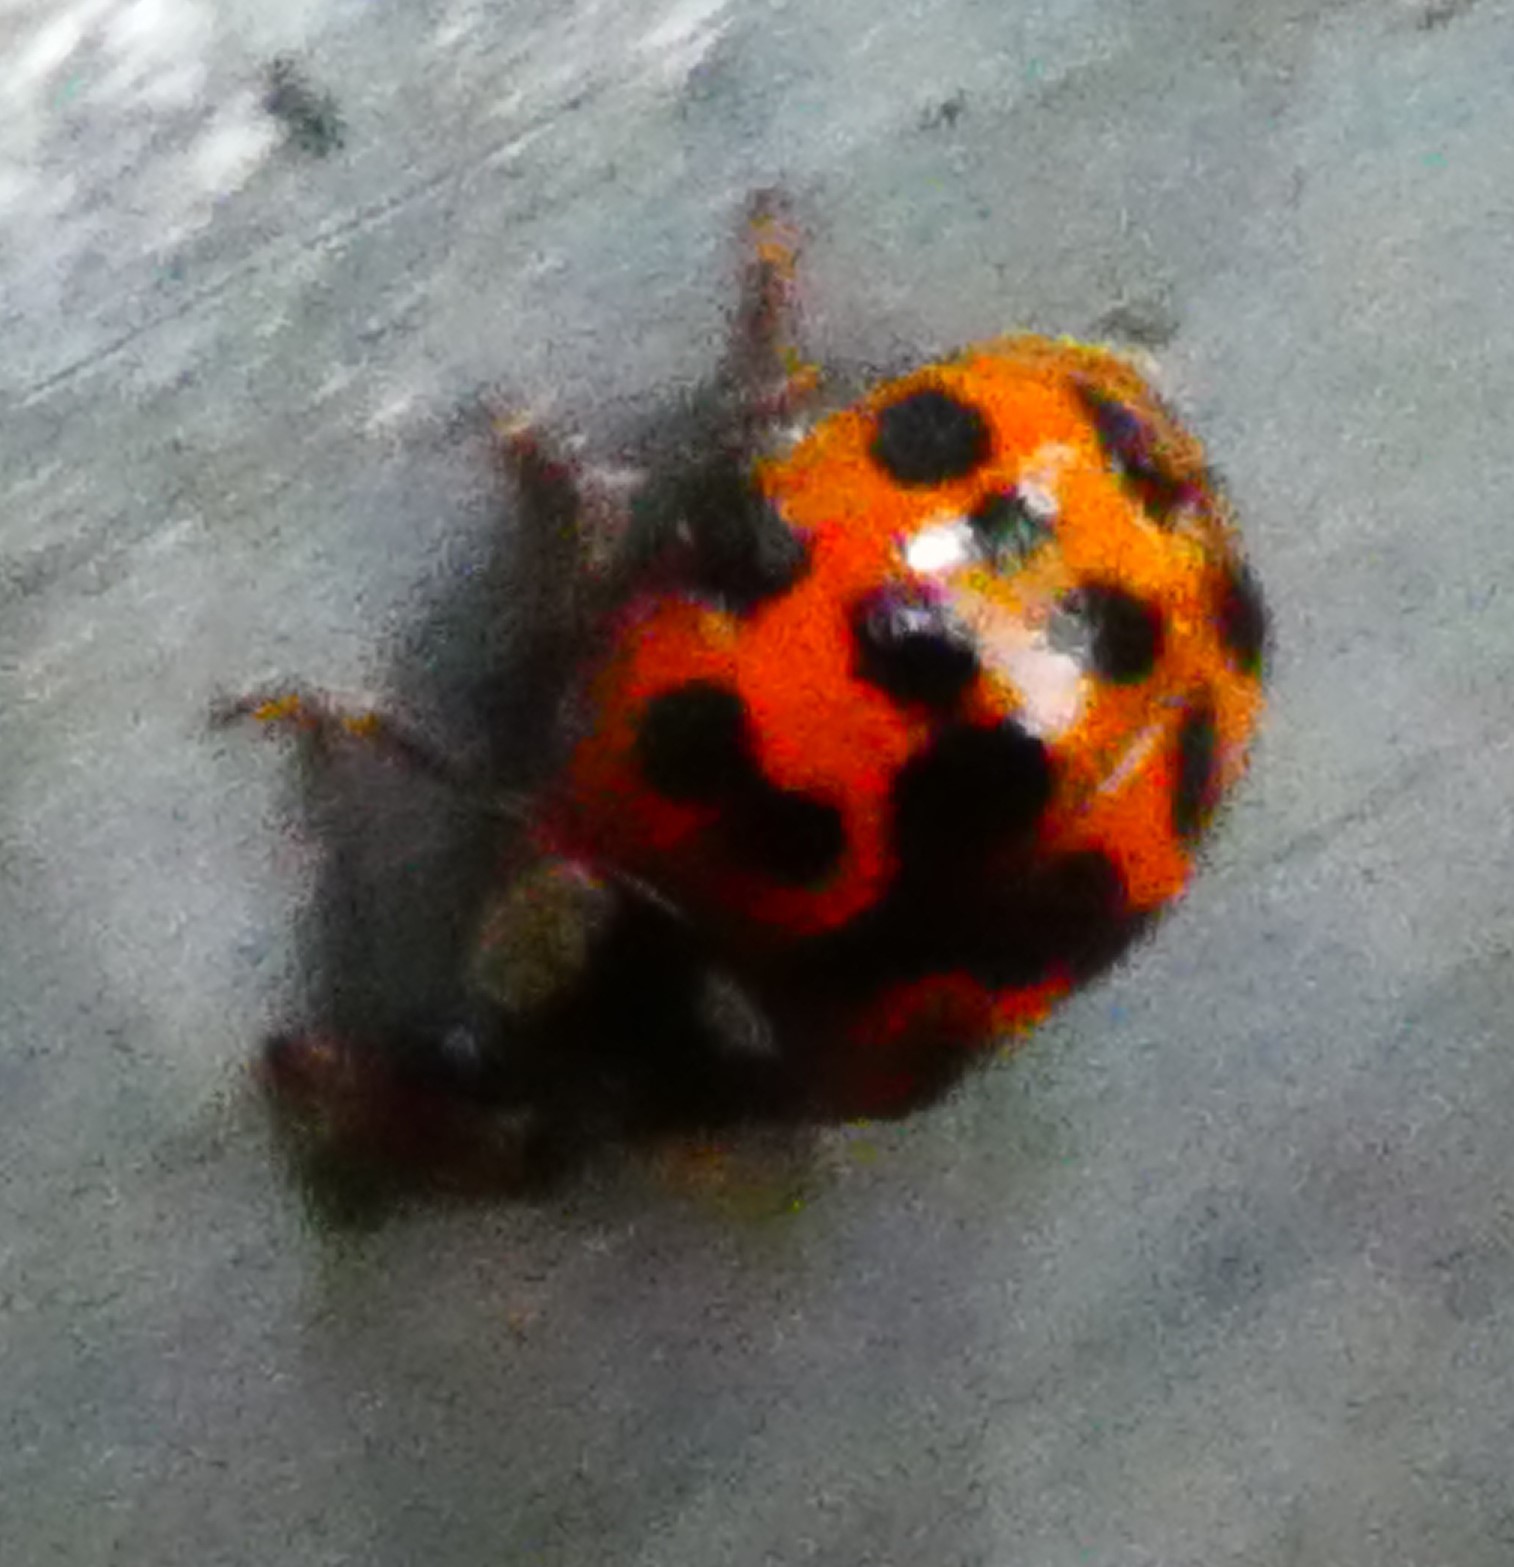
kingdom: Animalia
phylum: Arthropoda
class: Insecta
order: Coleoptera
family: Coccinellidae
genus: Harmonia
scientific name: Harmonia axyridis
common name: Harlequin ladybird
